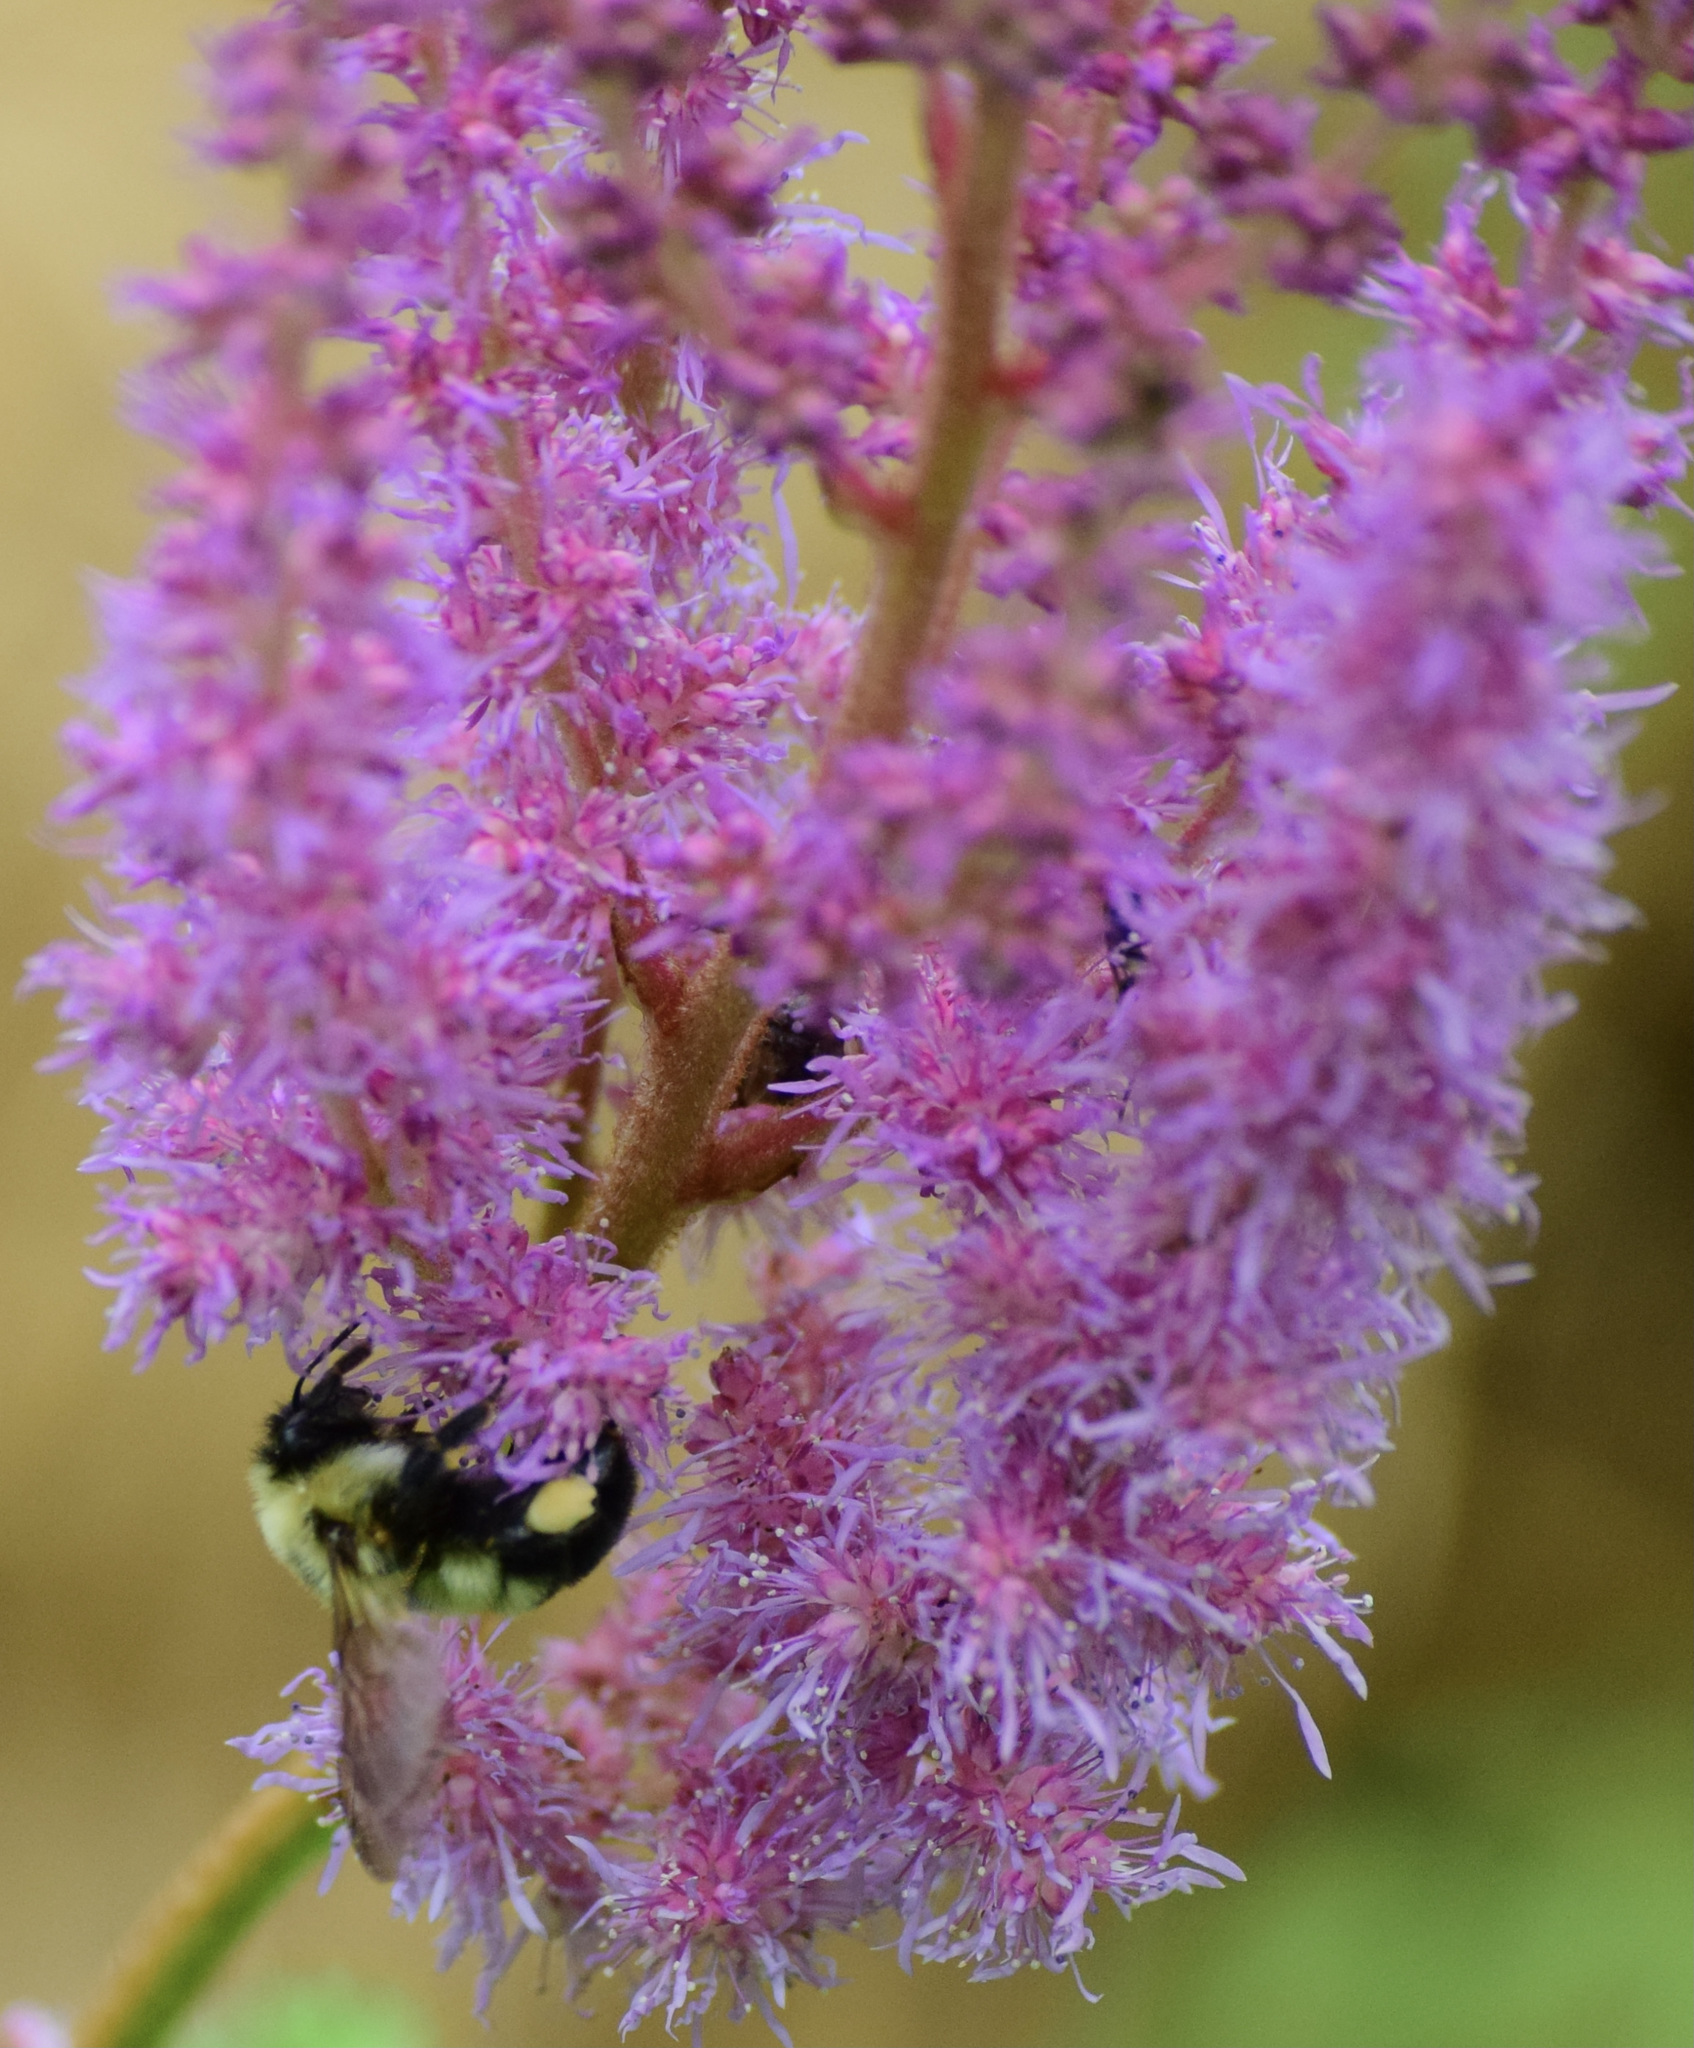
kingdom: Animalia
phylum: Arthropoda
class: Insecta
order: Hymenoptera
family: Apidae
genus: Bombus
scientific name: Bombus bimaculatus
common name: Two-spotted bumble bee
